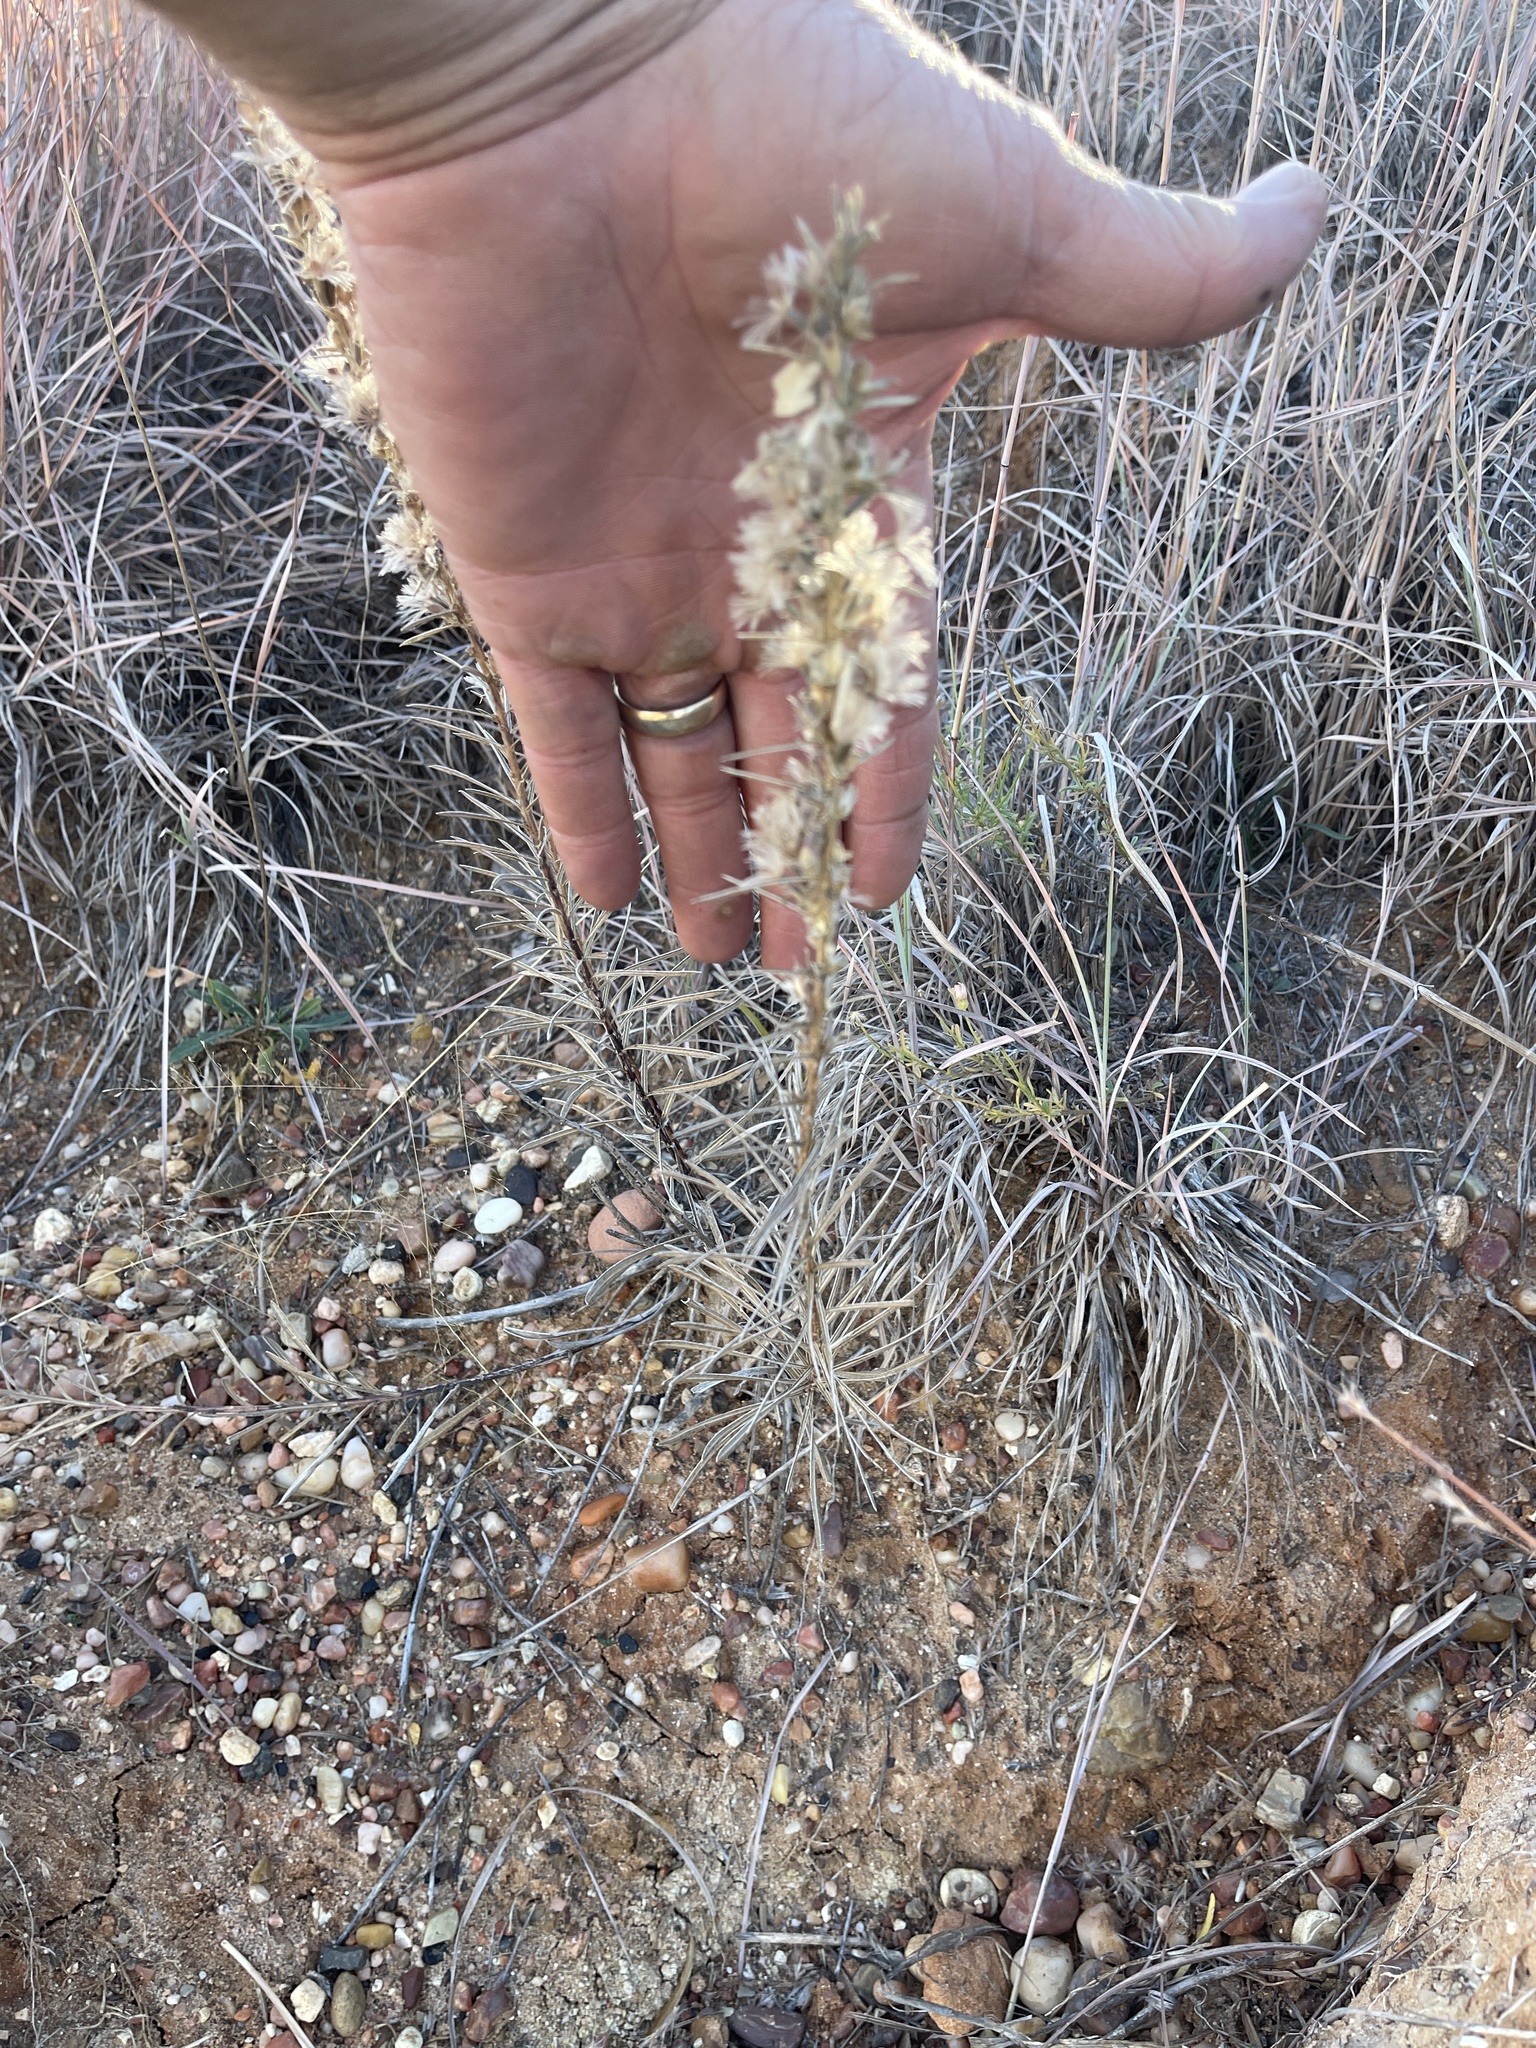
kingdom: Plantae
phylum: Tracheophyta
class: Magnoliopsida
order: Asterales
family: Asteraceae
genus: Liatris
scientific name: Liatris punctata
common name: Dotted gayfeather
